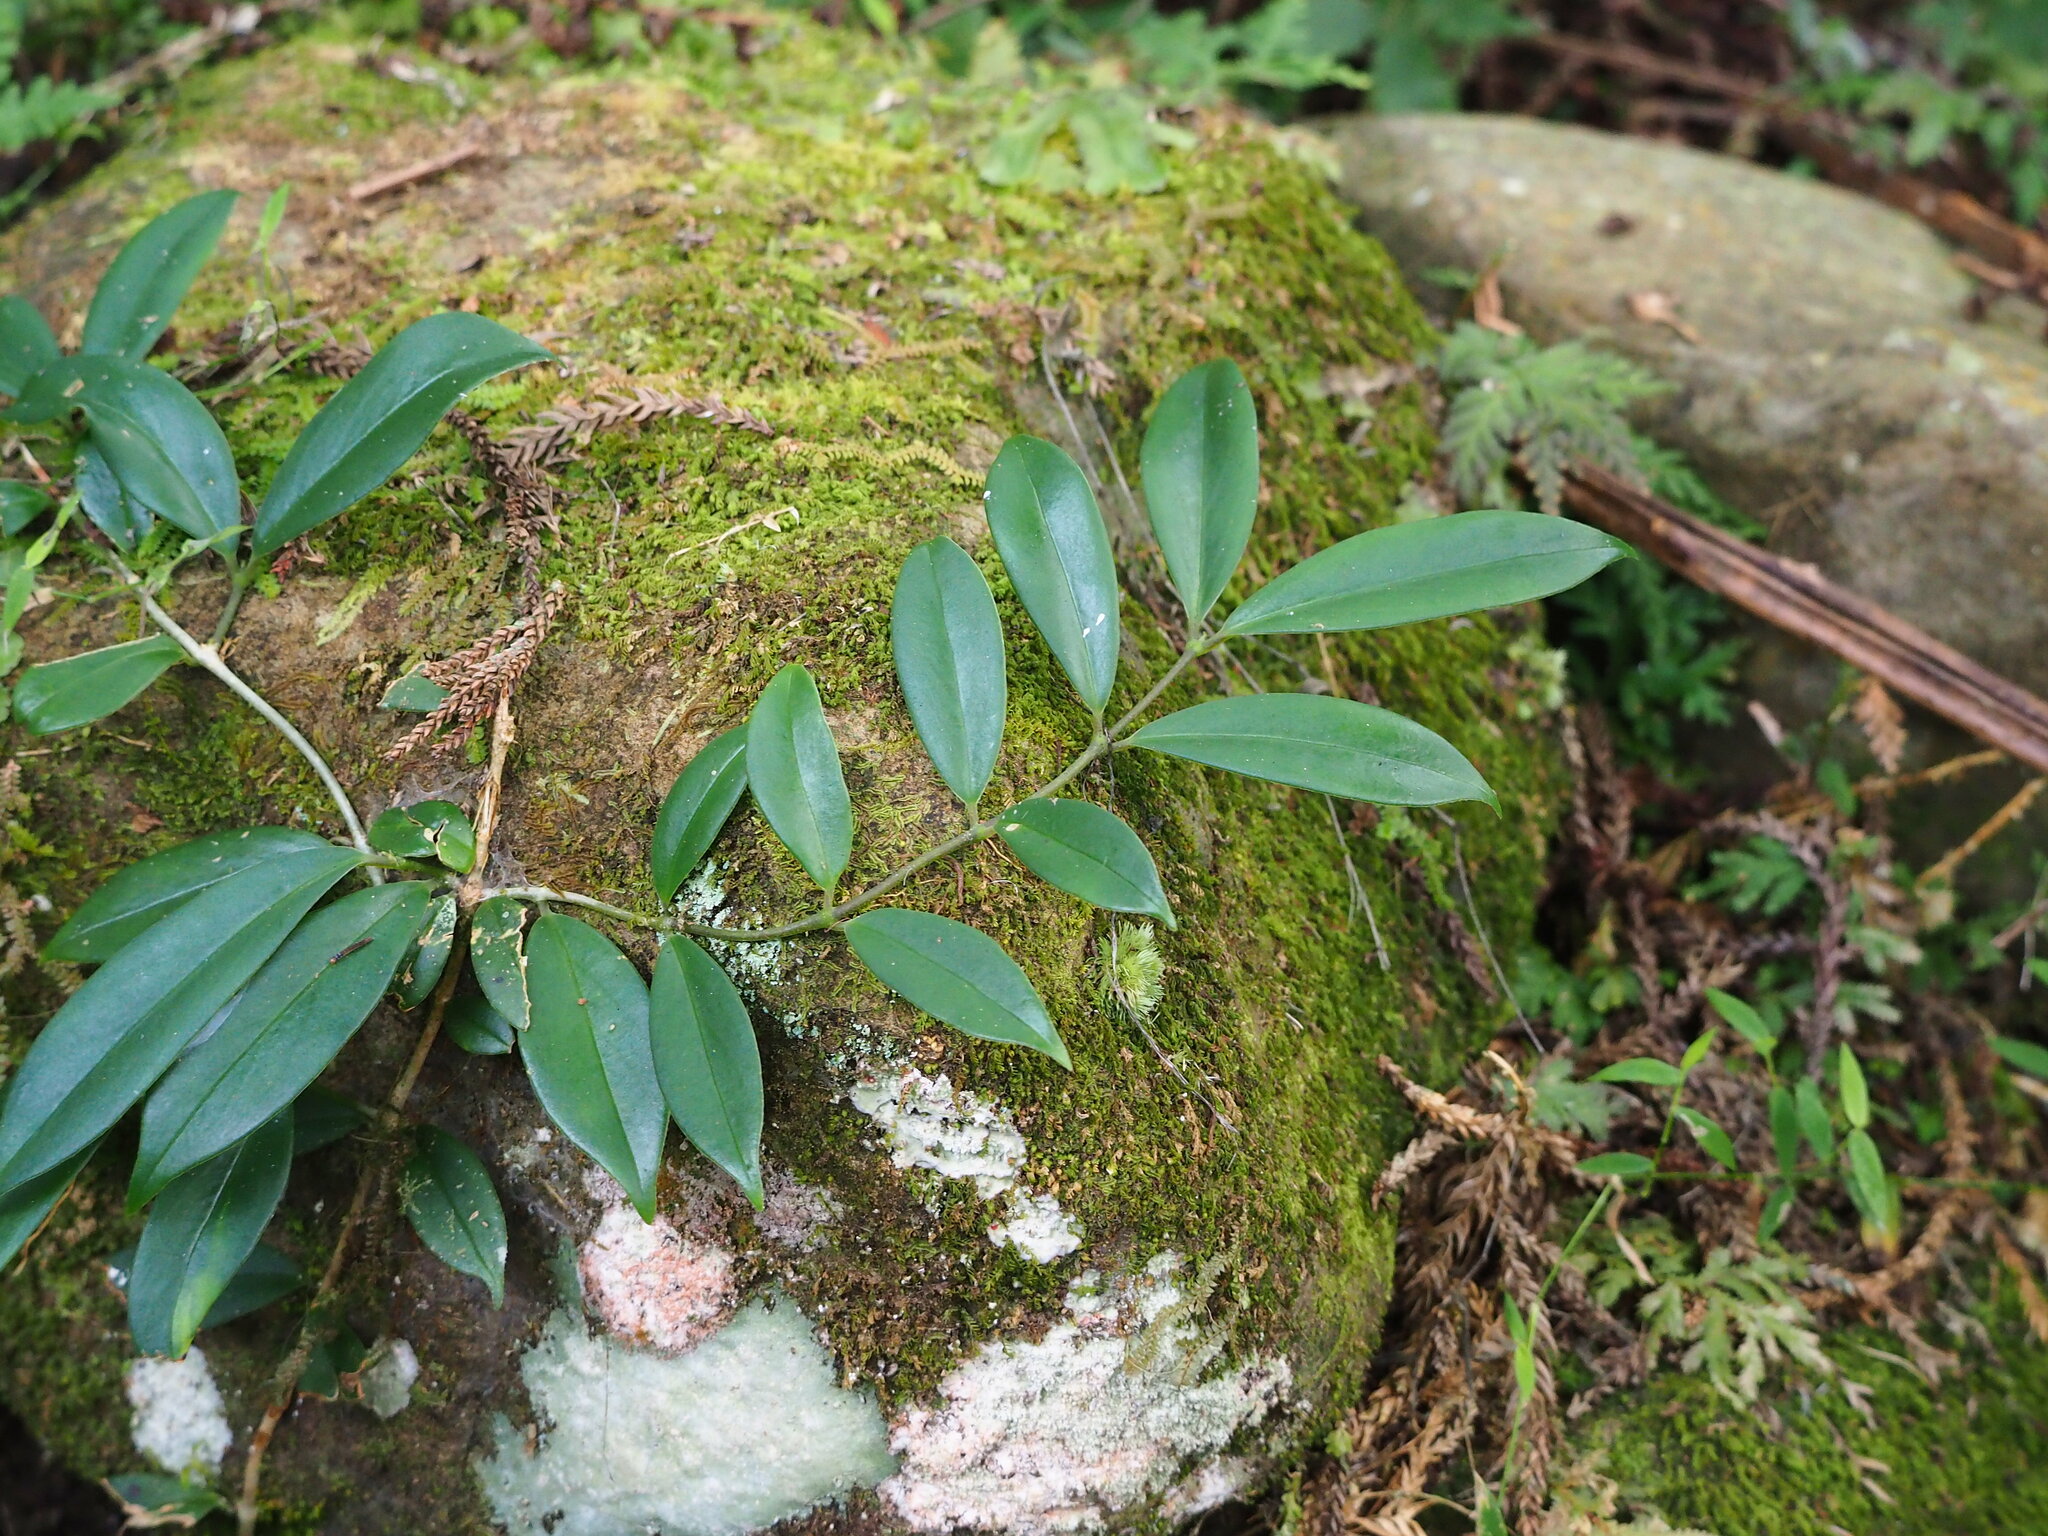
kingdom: Plantae
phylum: Tracheophyta
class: Magnoliopsida
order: Lamiales
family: Gesneriaceae
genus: Aeschynanthus
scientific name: Aeschynanthus acuminatus
